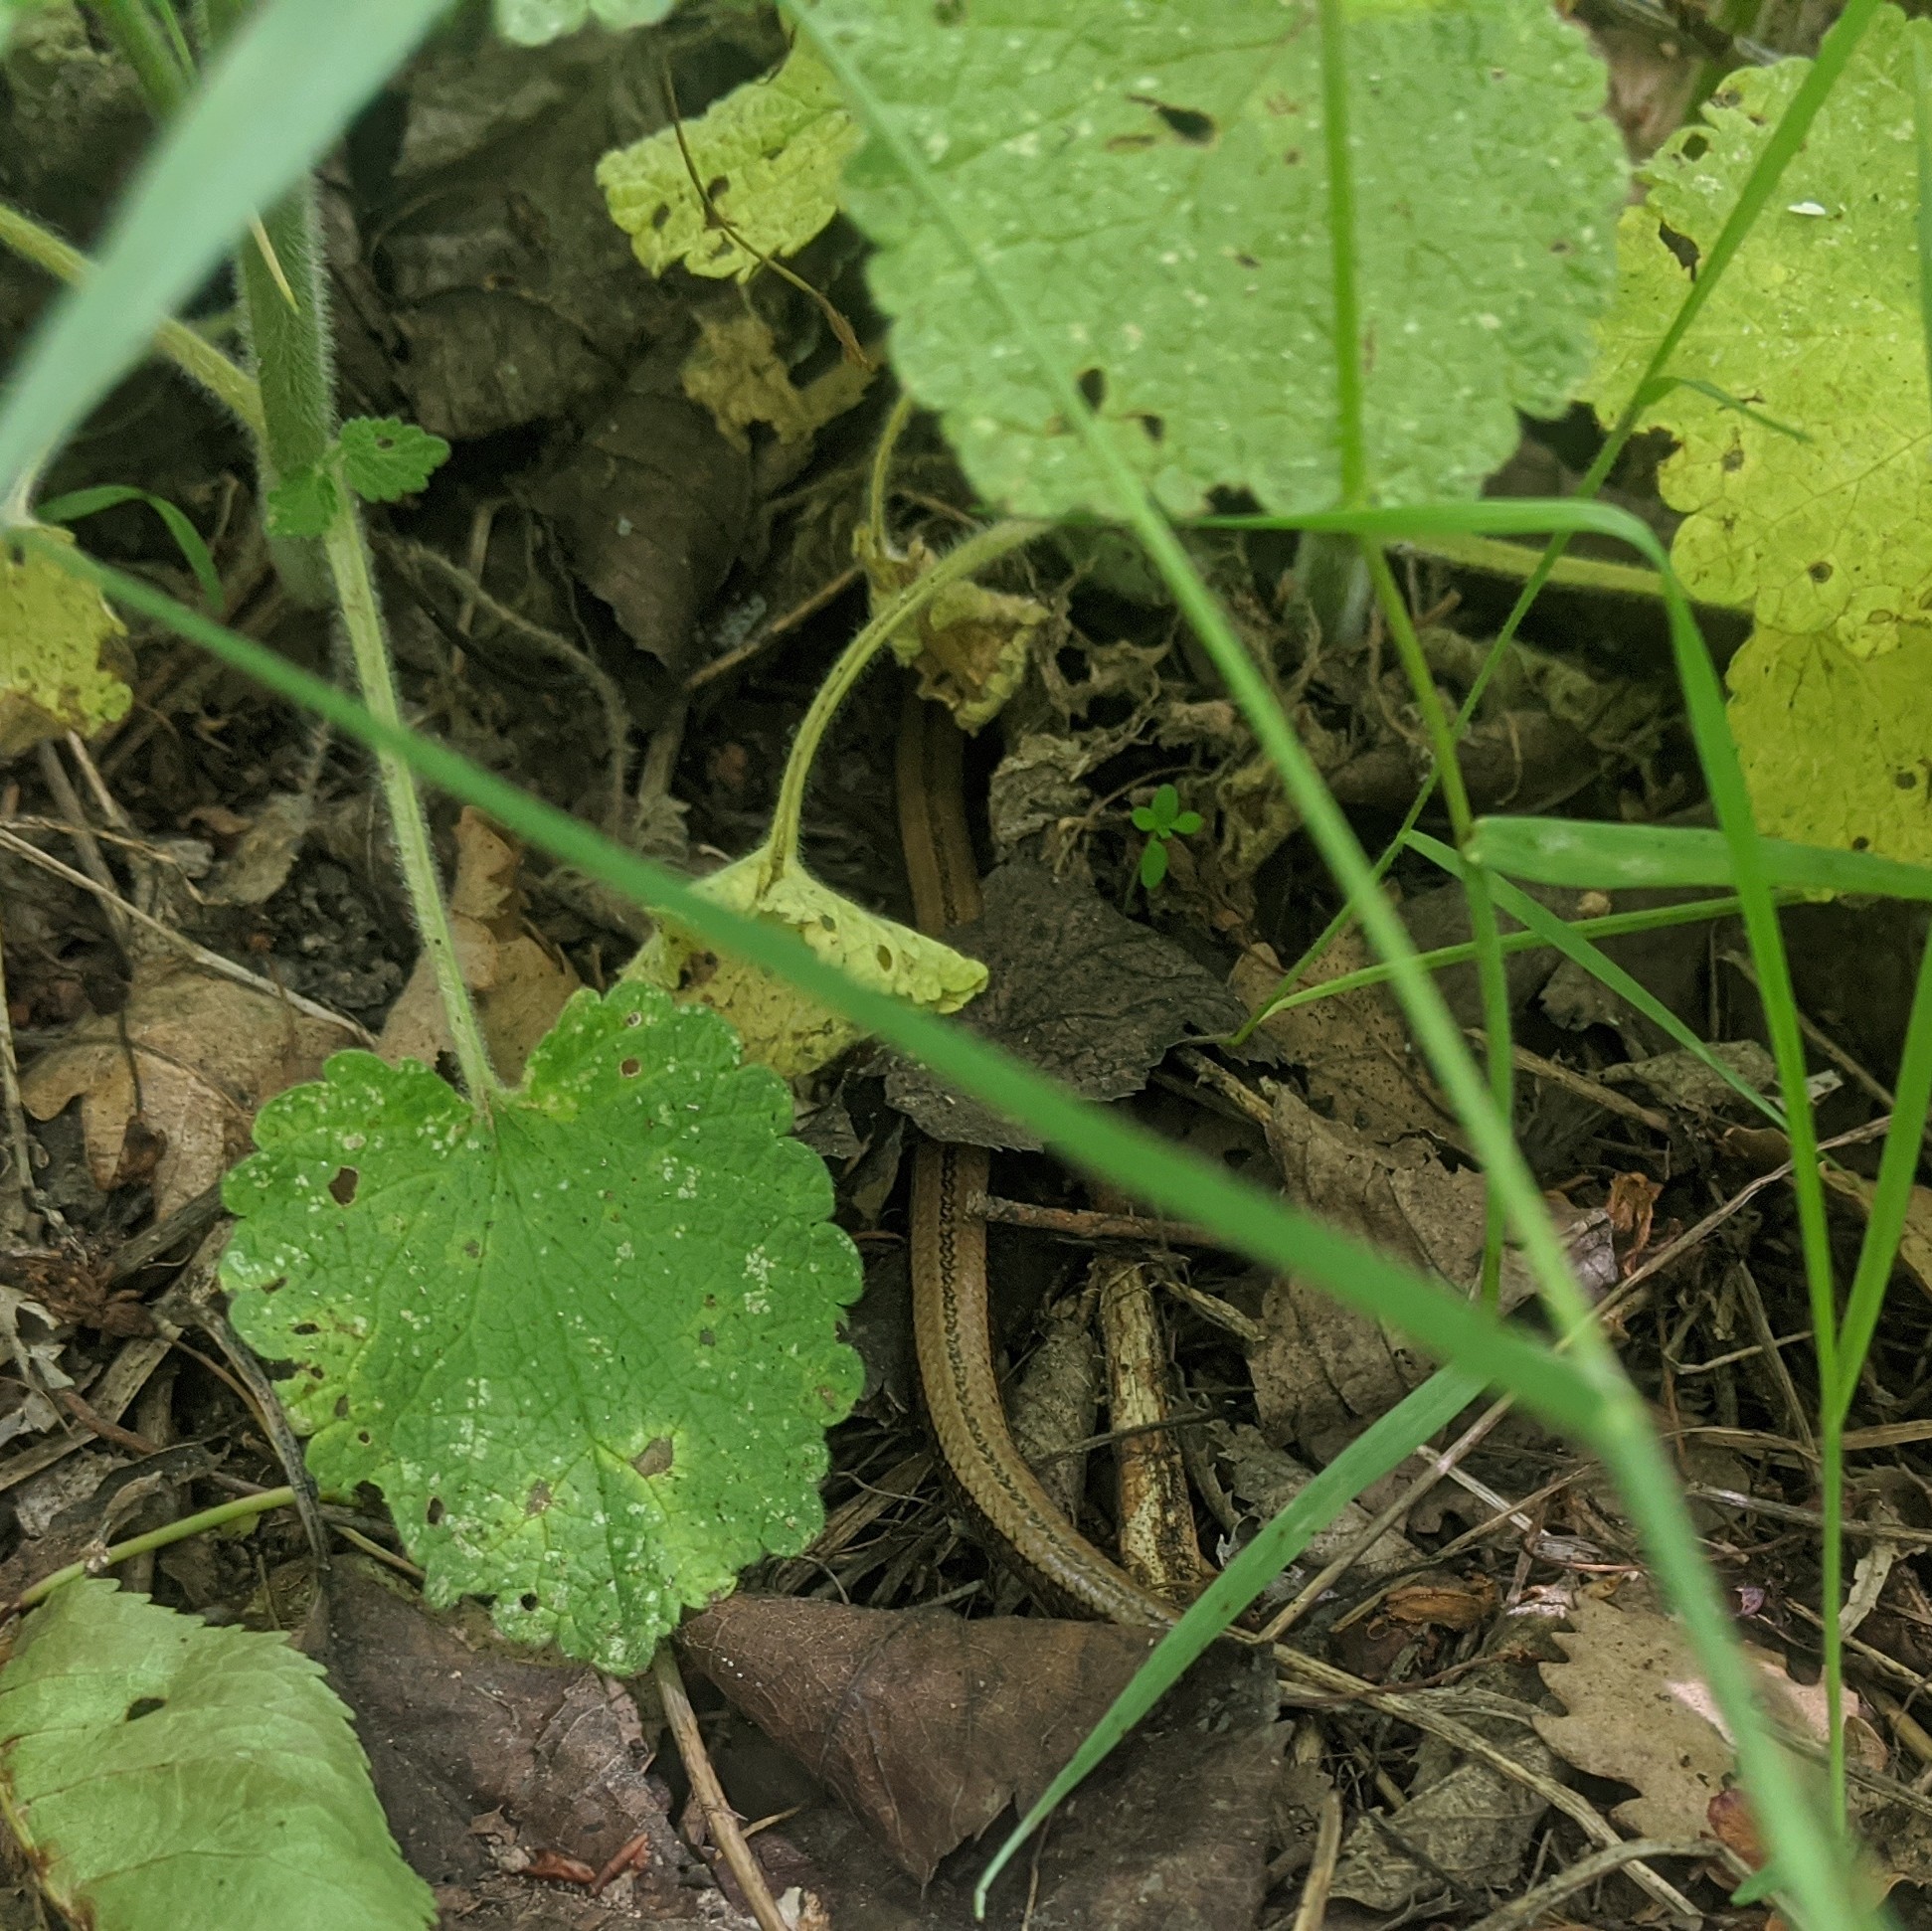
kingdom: Animalia
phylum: Chordata
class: Squamata
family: Anguidae
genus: Anguis
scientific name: Anguis fragilis
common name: Slow worm
